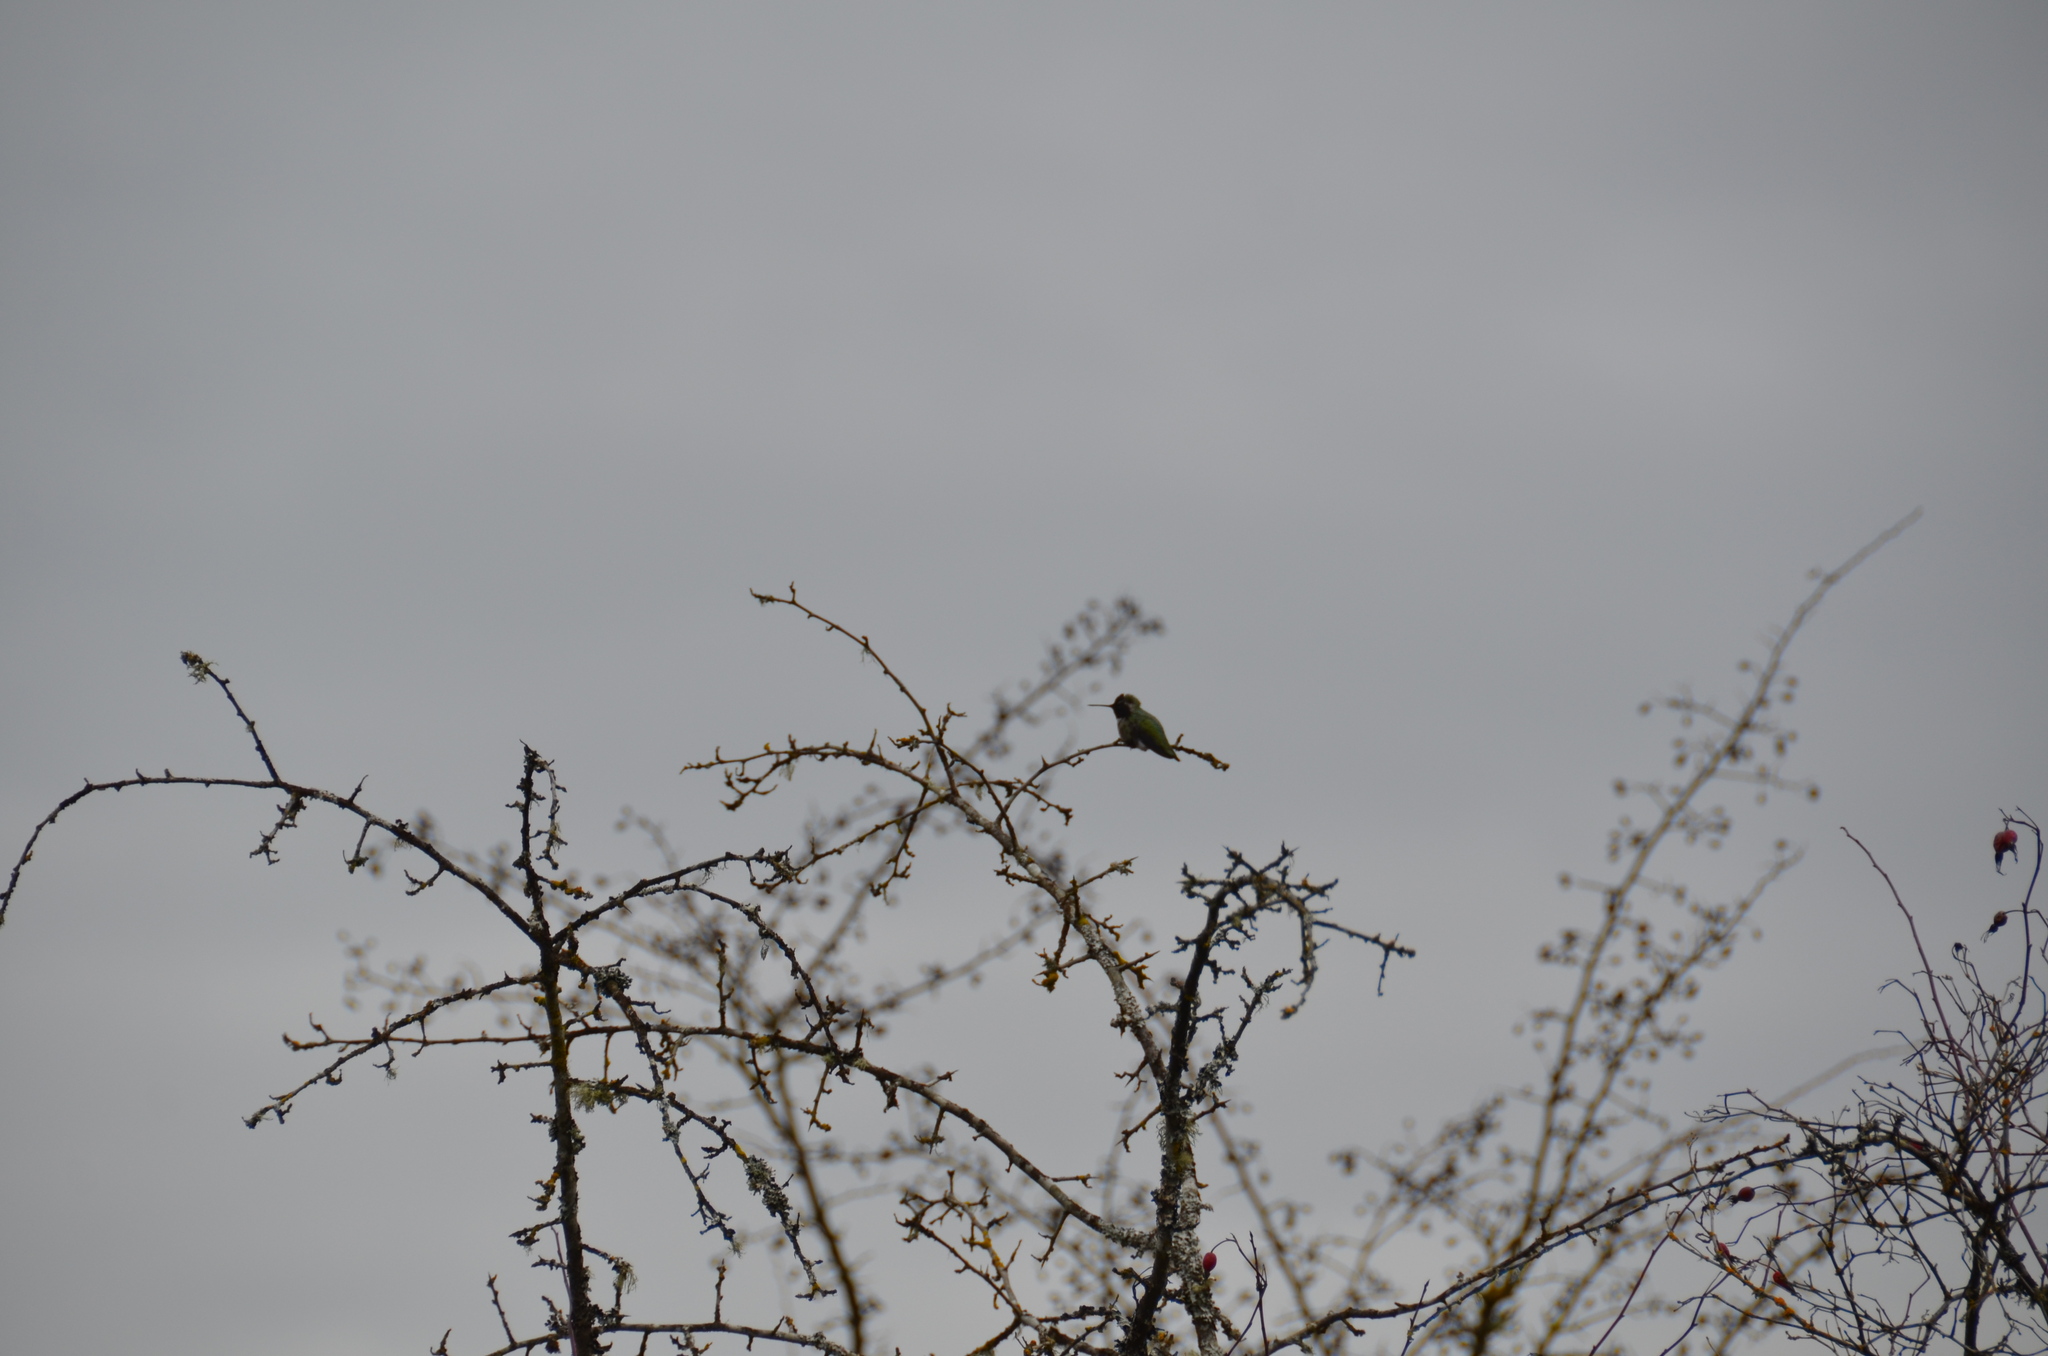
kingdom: Animalia
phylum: Chordata
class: Aves
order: Apodiformes
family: Trochilidae
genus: Calypte
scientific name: Calypte anna
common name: Anna's hummingbird
